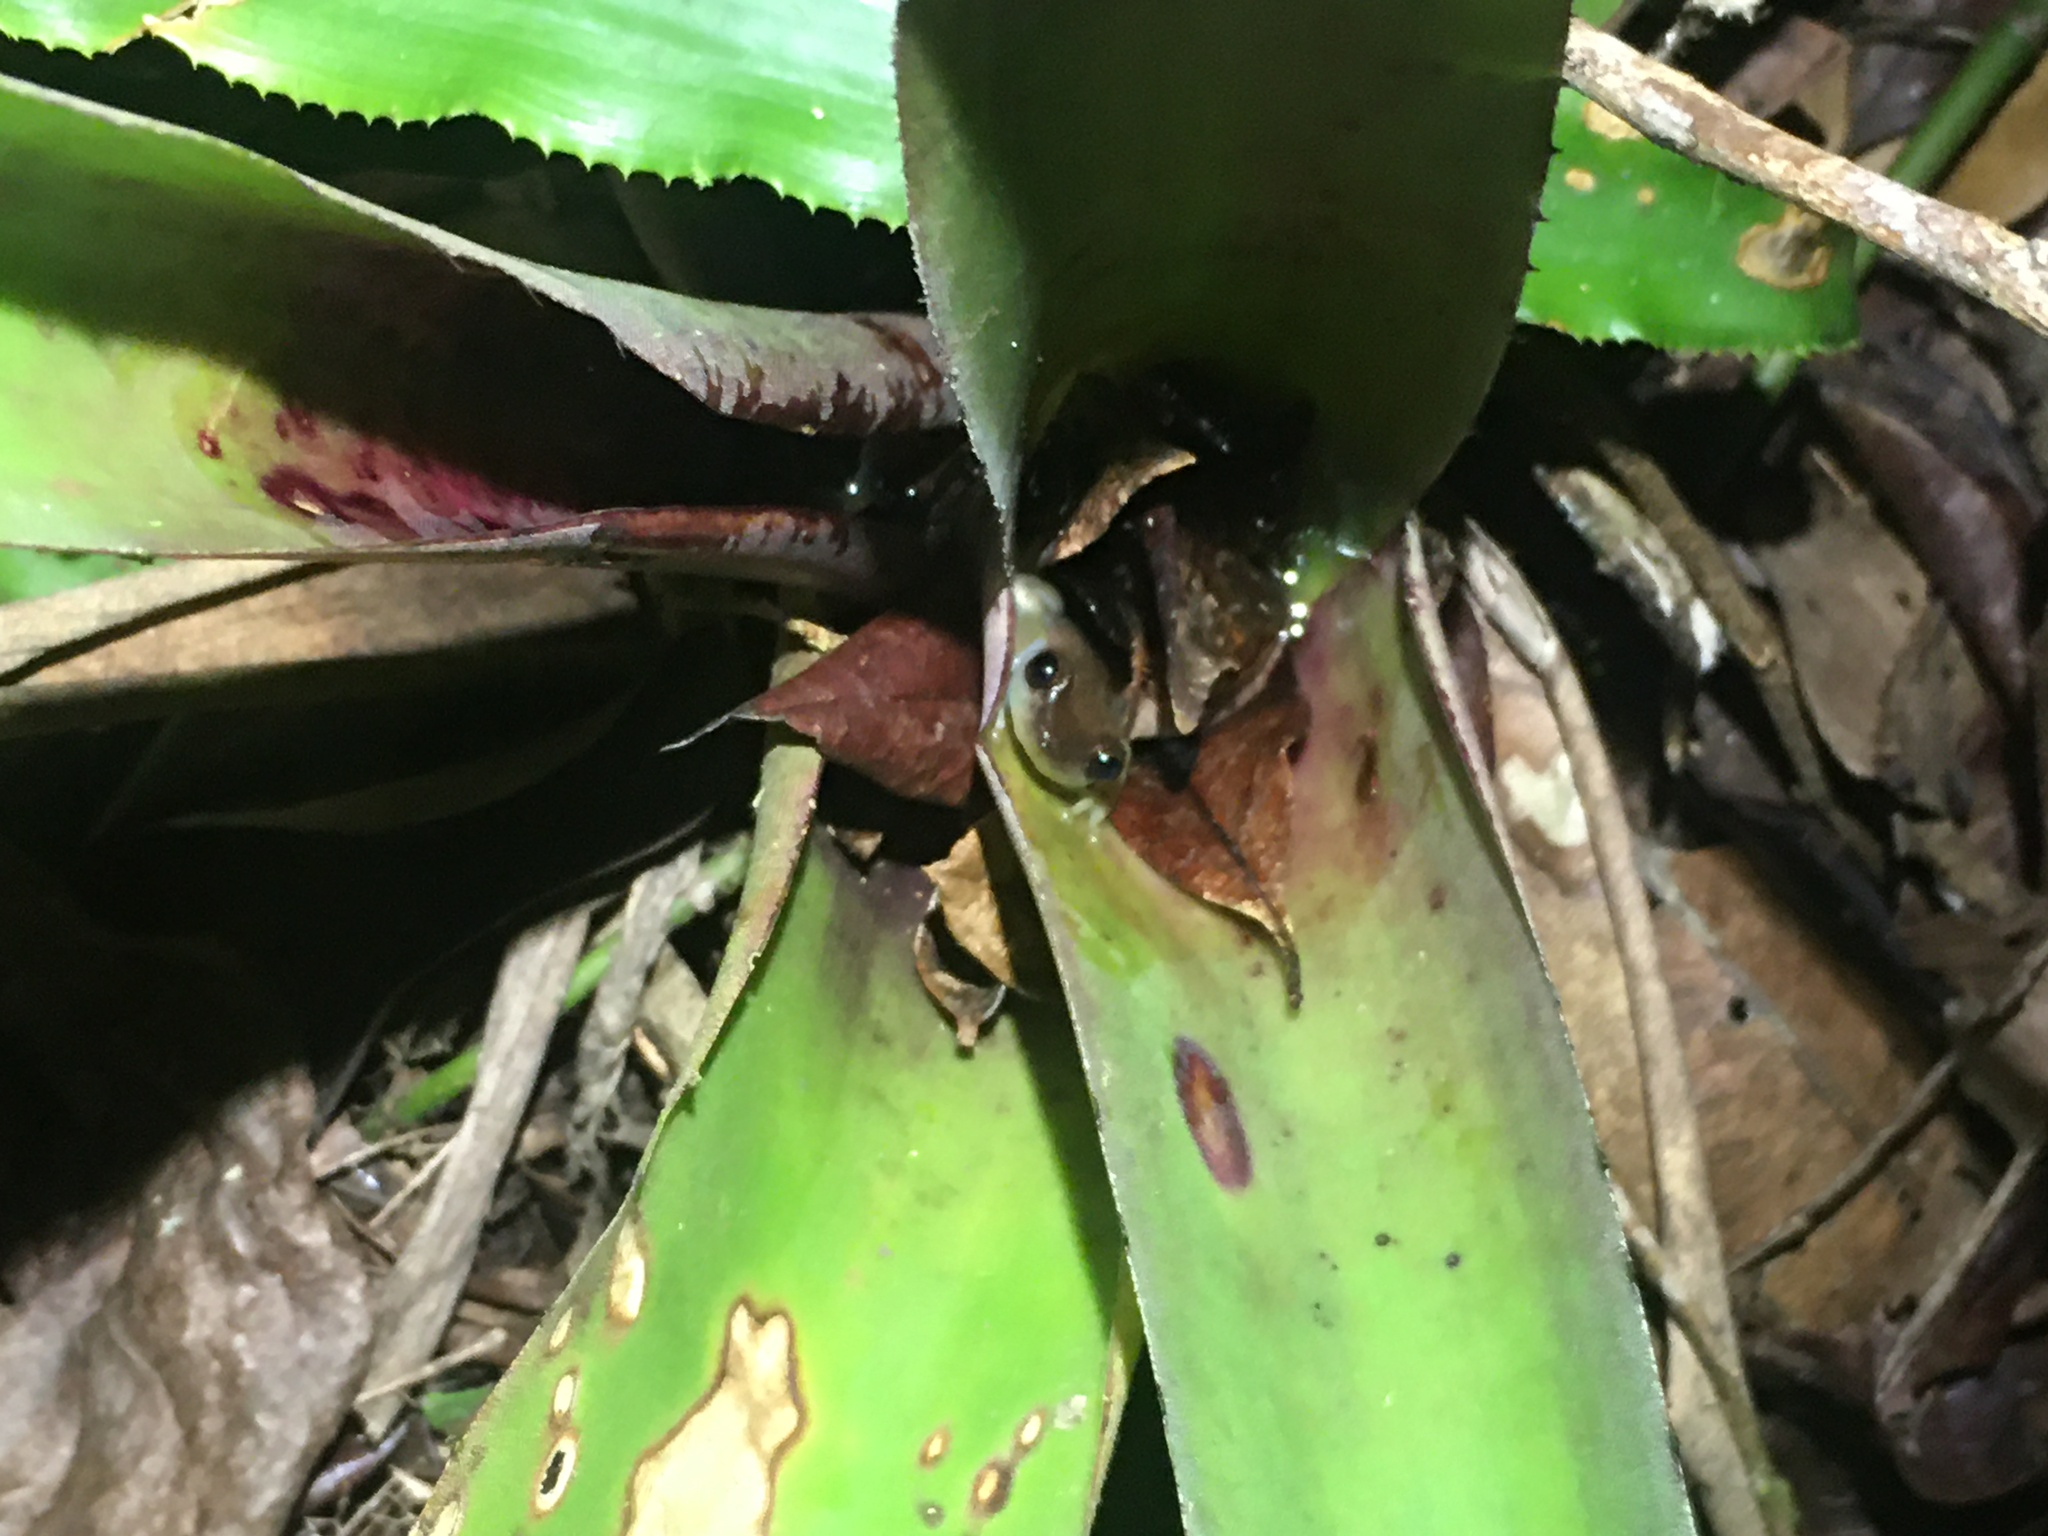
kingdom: Animalia
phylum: Chordata
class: Amphibia
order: Anura
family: Hylidae
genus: Phyllodytes
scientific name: Phyllodytes gyrinaethes
